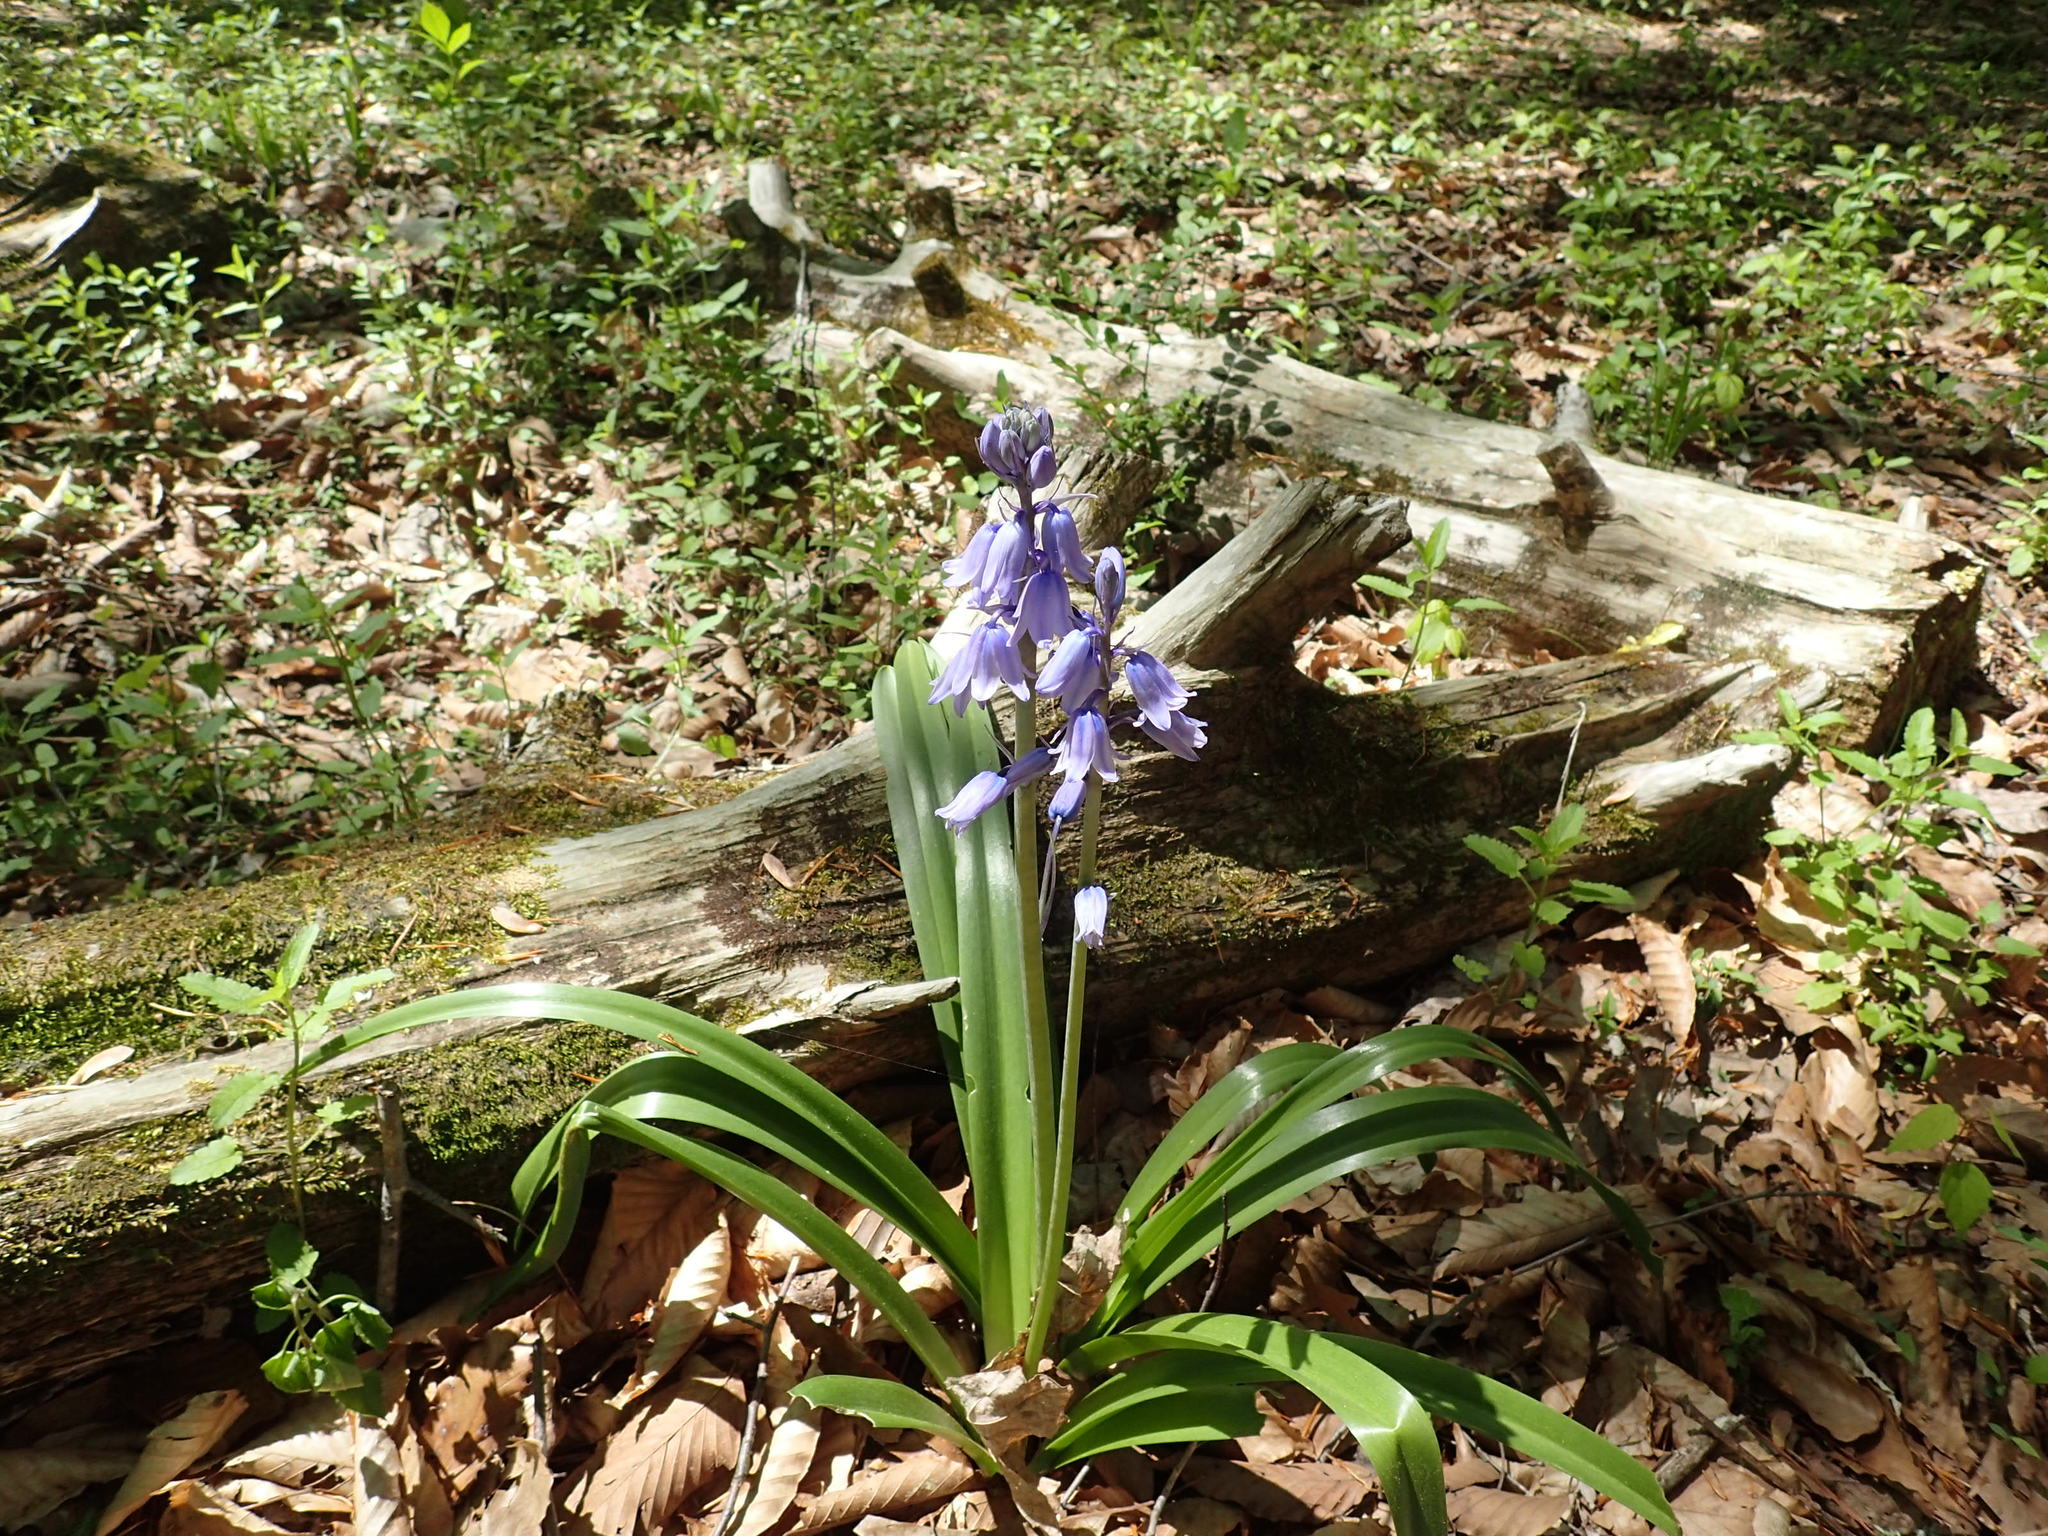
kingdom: Plantae
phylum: Tracheophyta
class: Liliopsida
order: Asparagales
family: Asparagaceae
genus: Hyacinthoides
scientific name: Hyacinthoides hispanica
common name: Spanish bluebell
